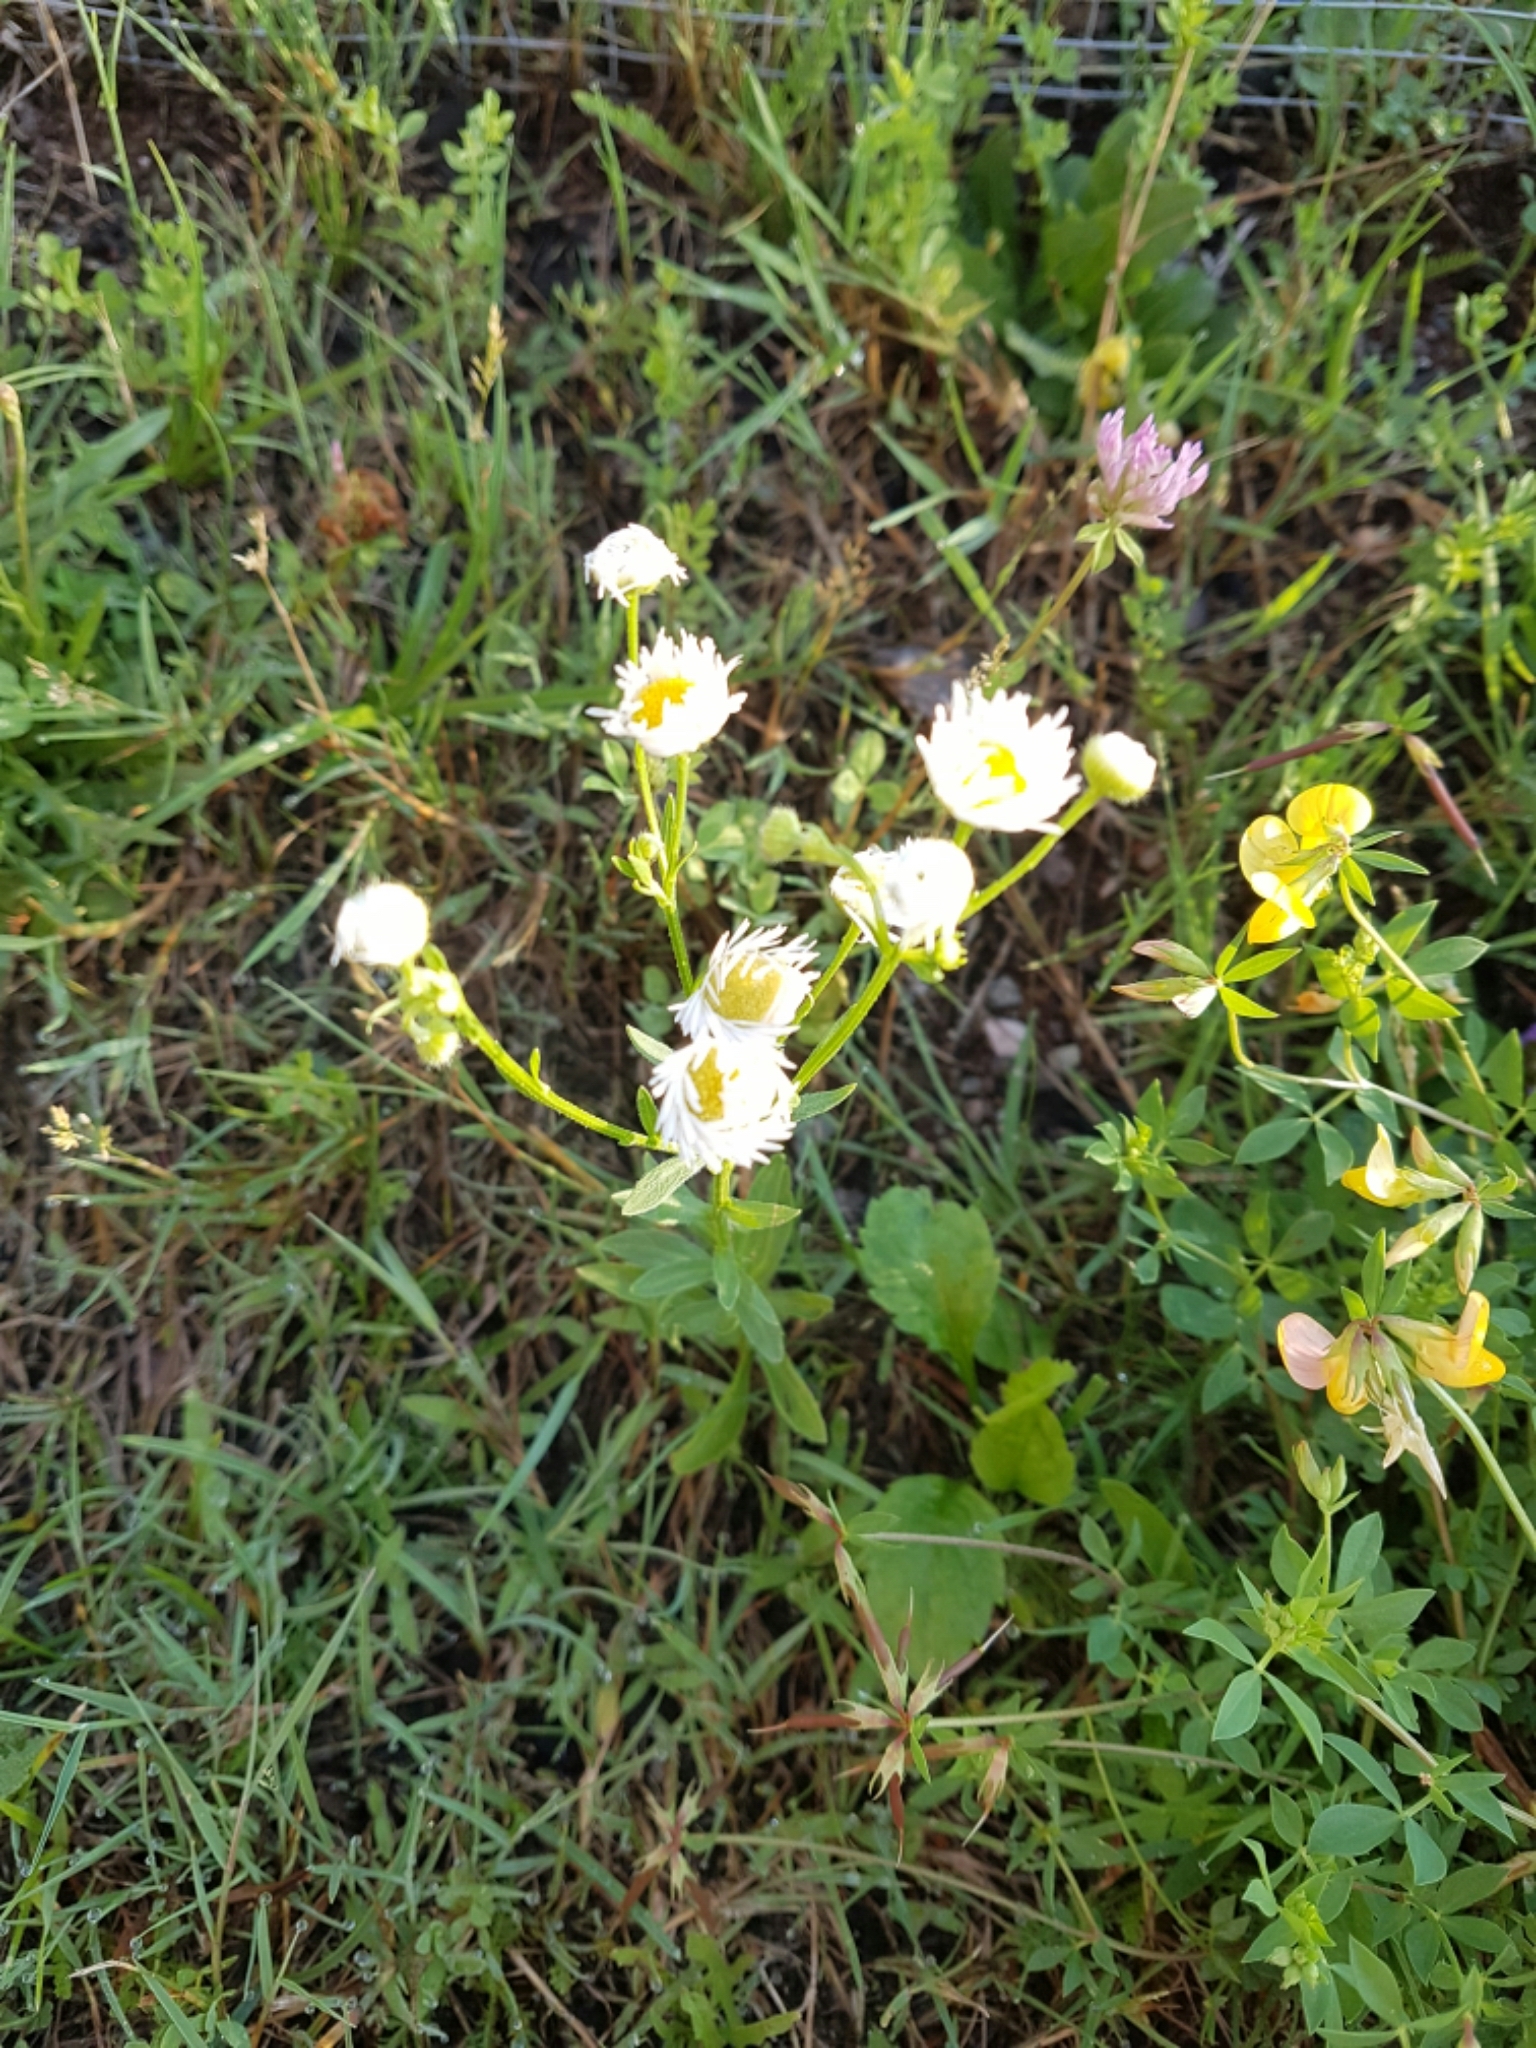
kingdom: Plantae
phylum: Tracheophyta
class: Magnoliopsida
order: Asterales
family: Asteraceae
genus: Erigeron
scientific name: Erigeron annuus
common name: Tall fleabane
